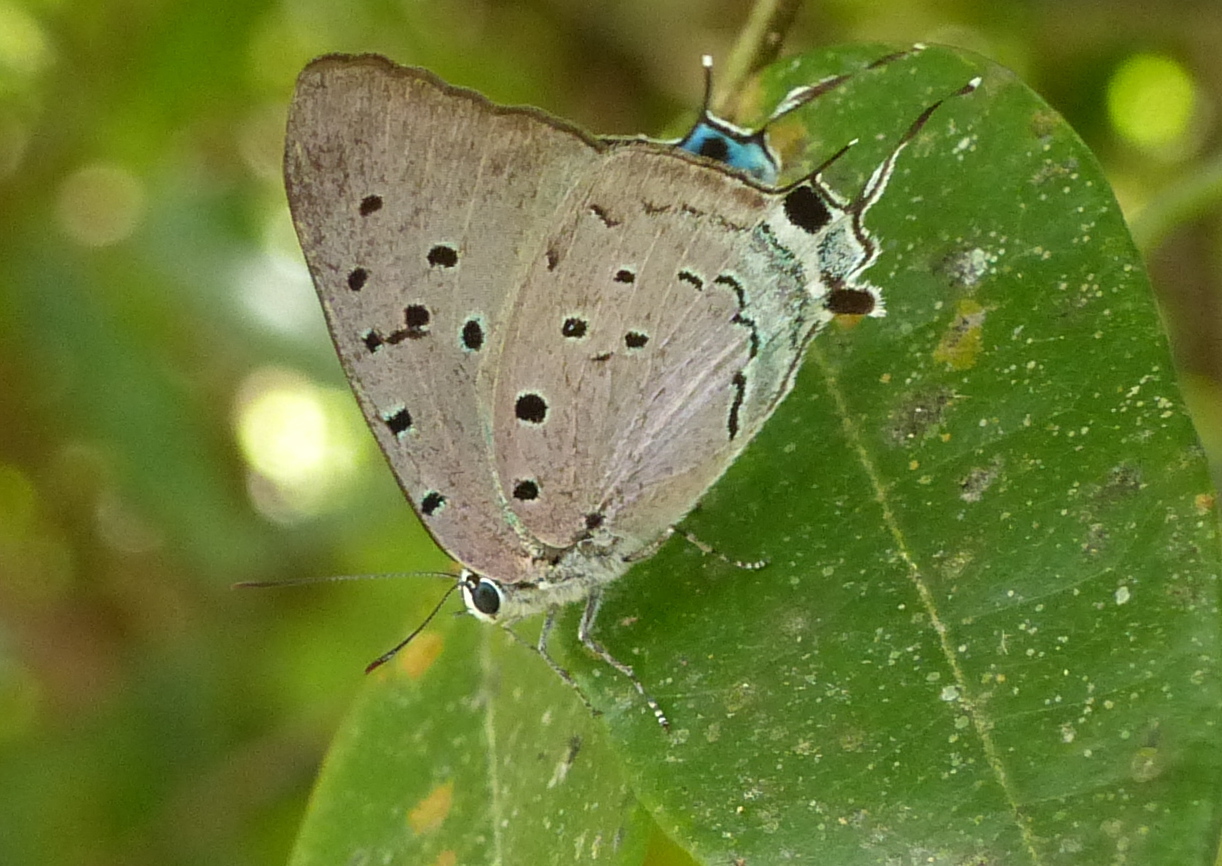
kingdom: Animalia
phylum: Arthropoda
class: Insecta
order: Lepidoptera
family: Lycaenidae
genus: Pseudolycaena
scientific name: Pseudolycaena marsyas
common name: Marsyas hairstreak
